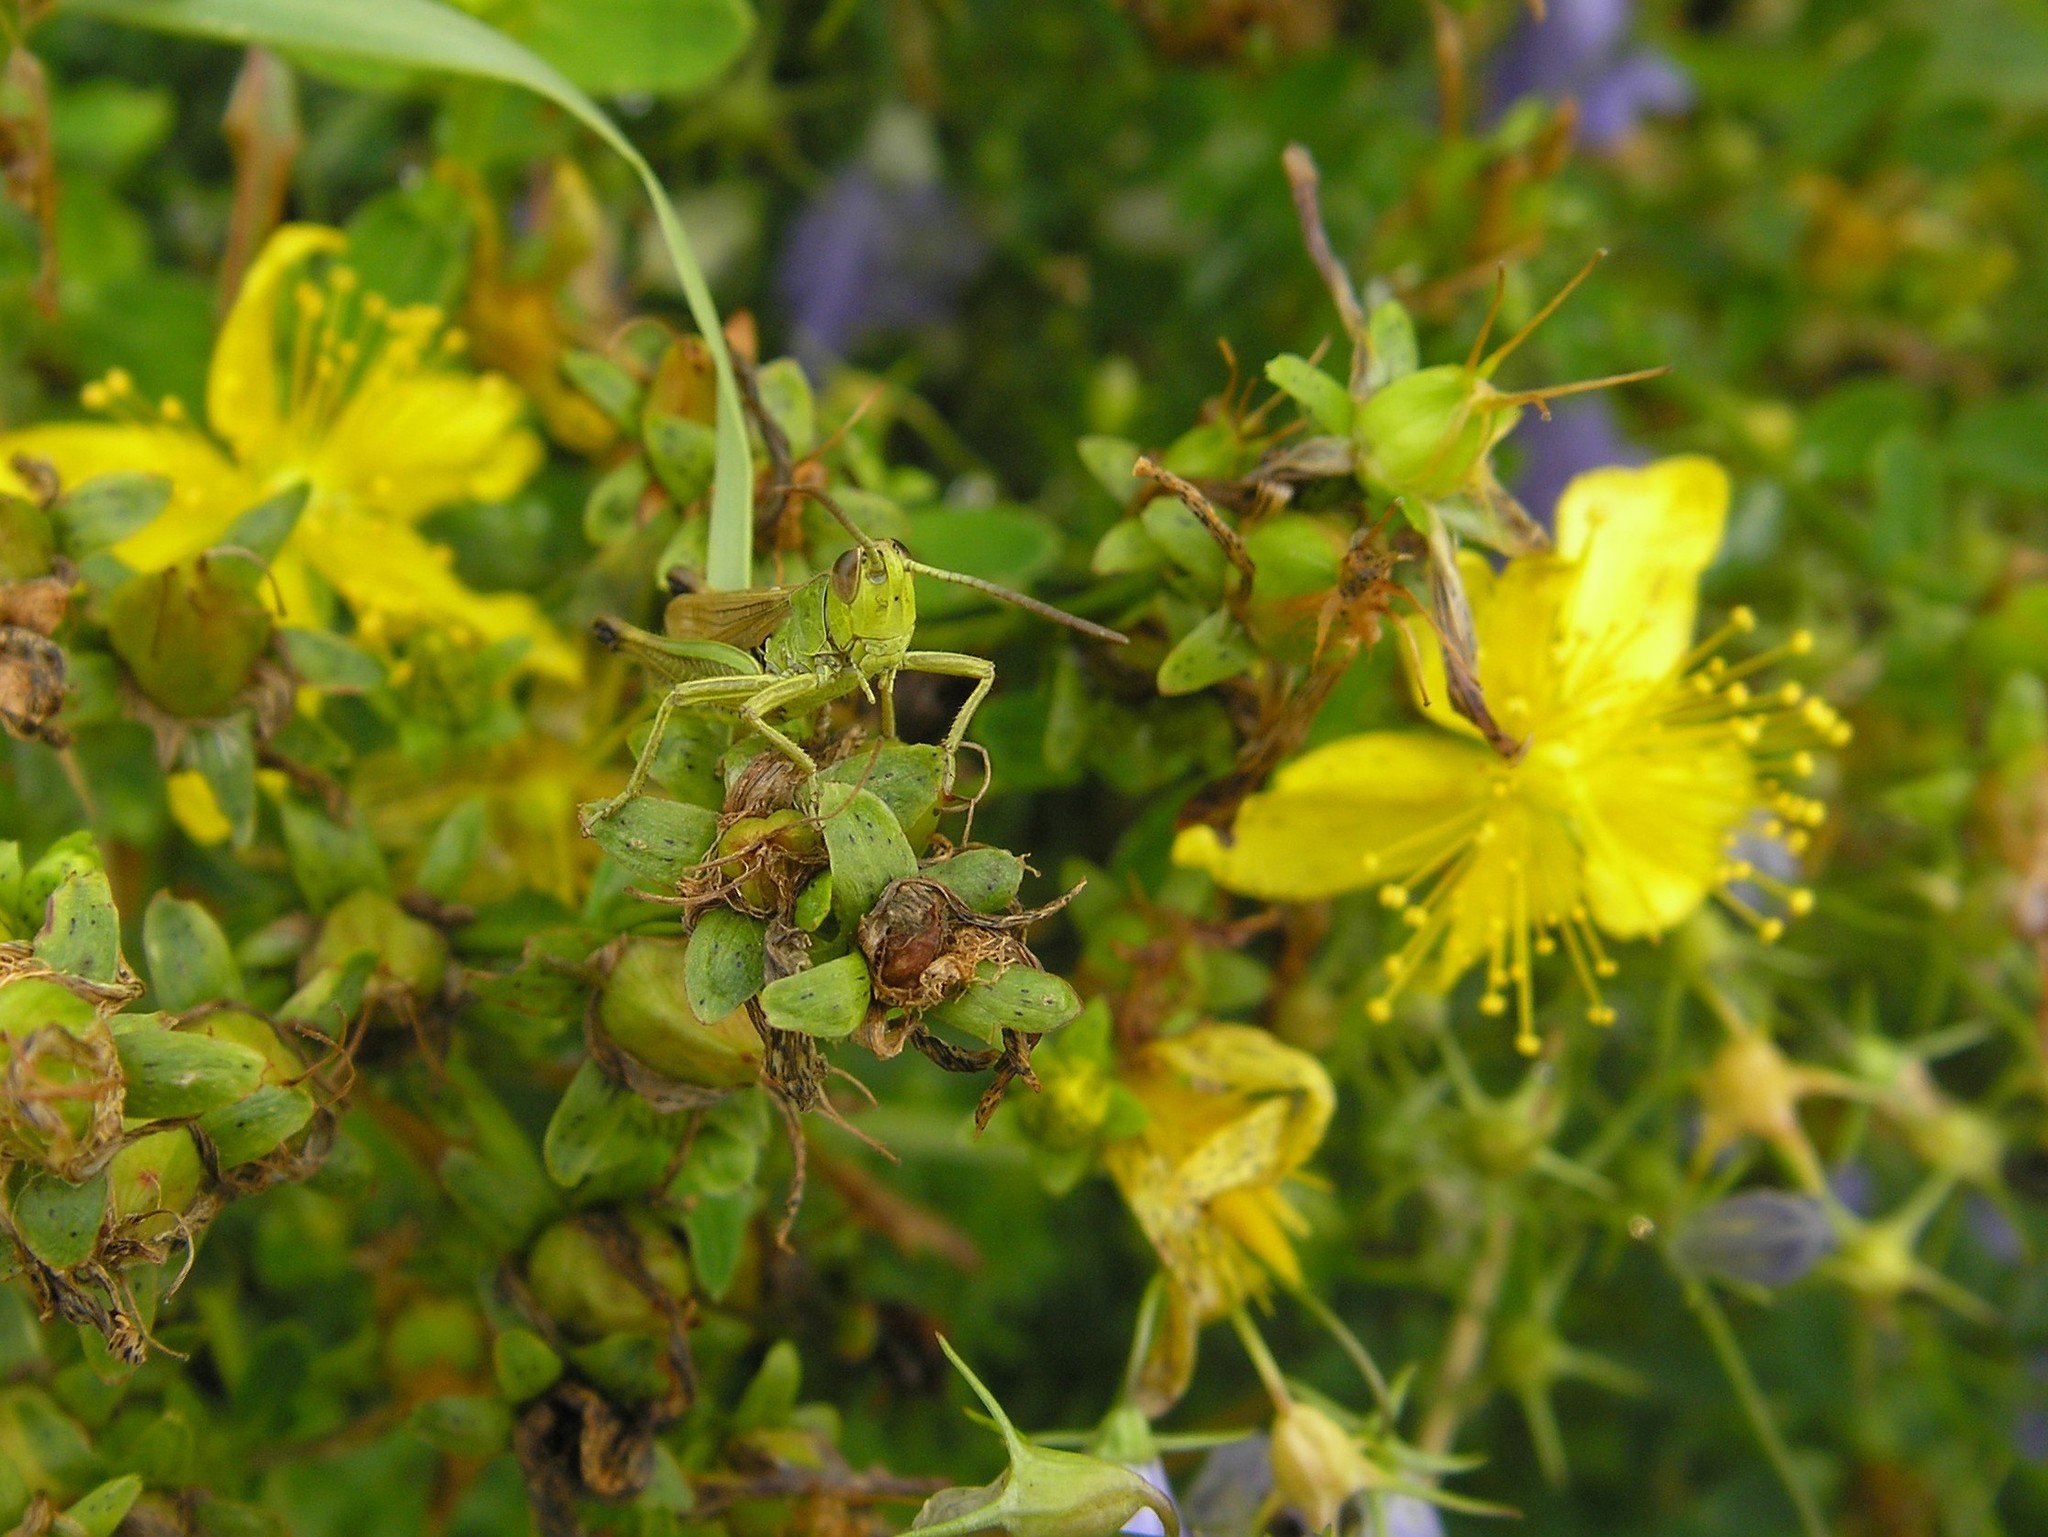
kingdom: Animalia
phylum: Arthropoda
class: Insecta
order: Orthoptera
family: Acrididae
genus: Pseudochorthippus
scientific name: Pseudochorthippus parallelus
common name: Meadow grasshopper
